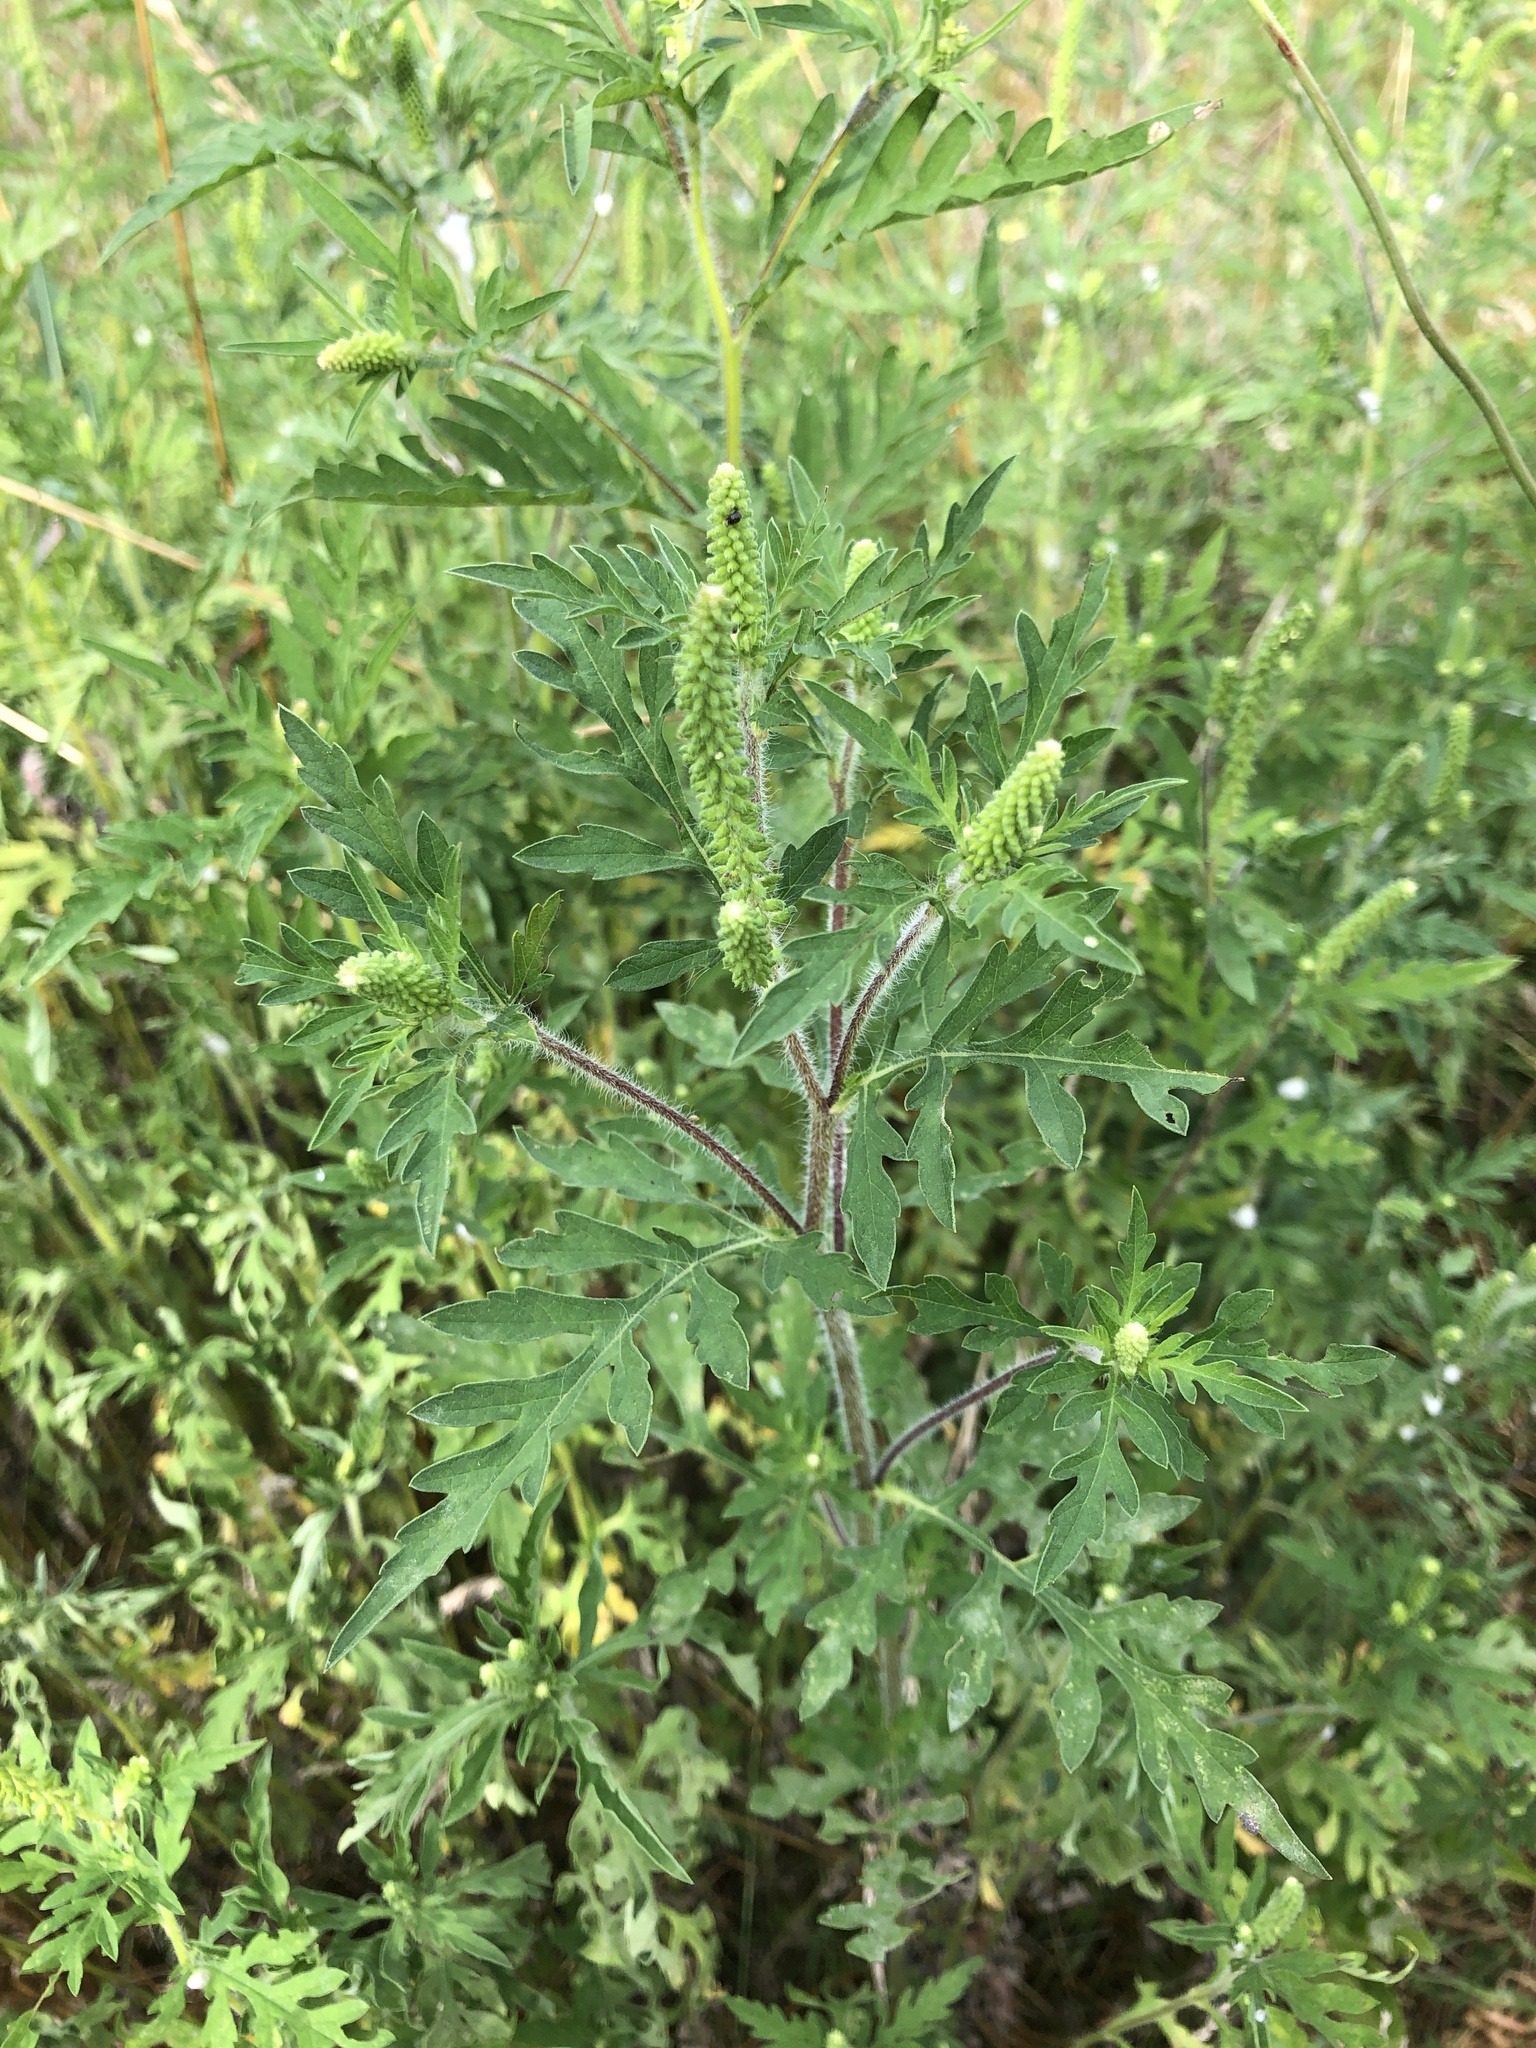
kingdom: Plantae
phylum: Tracheophyta
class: Magnoliopsida
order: Asterales
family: Asteraceae
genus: Ambrosia
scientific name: Ambrosia artemisiifolia
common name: Annual ragweed
